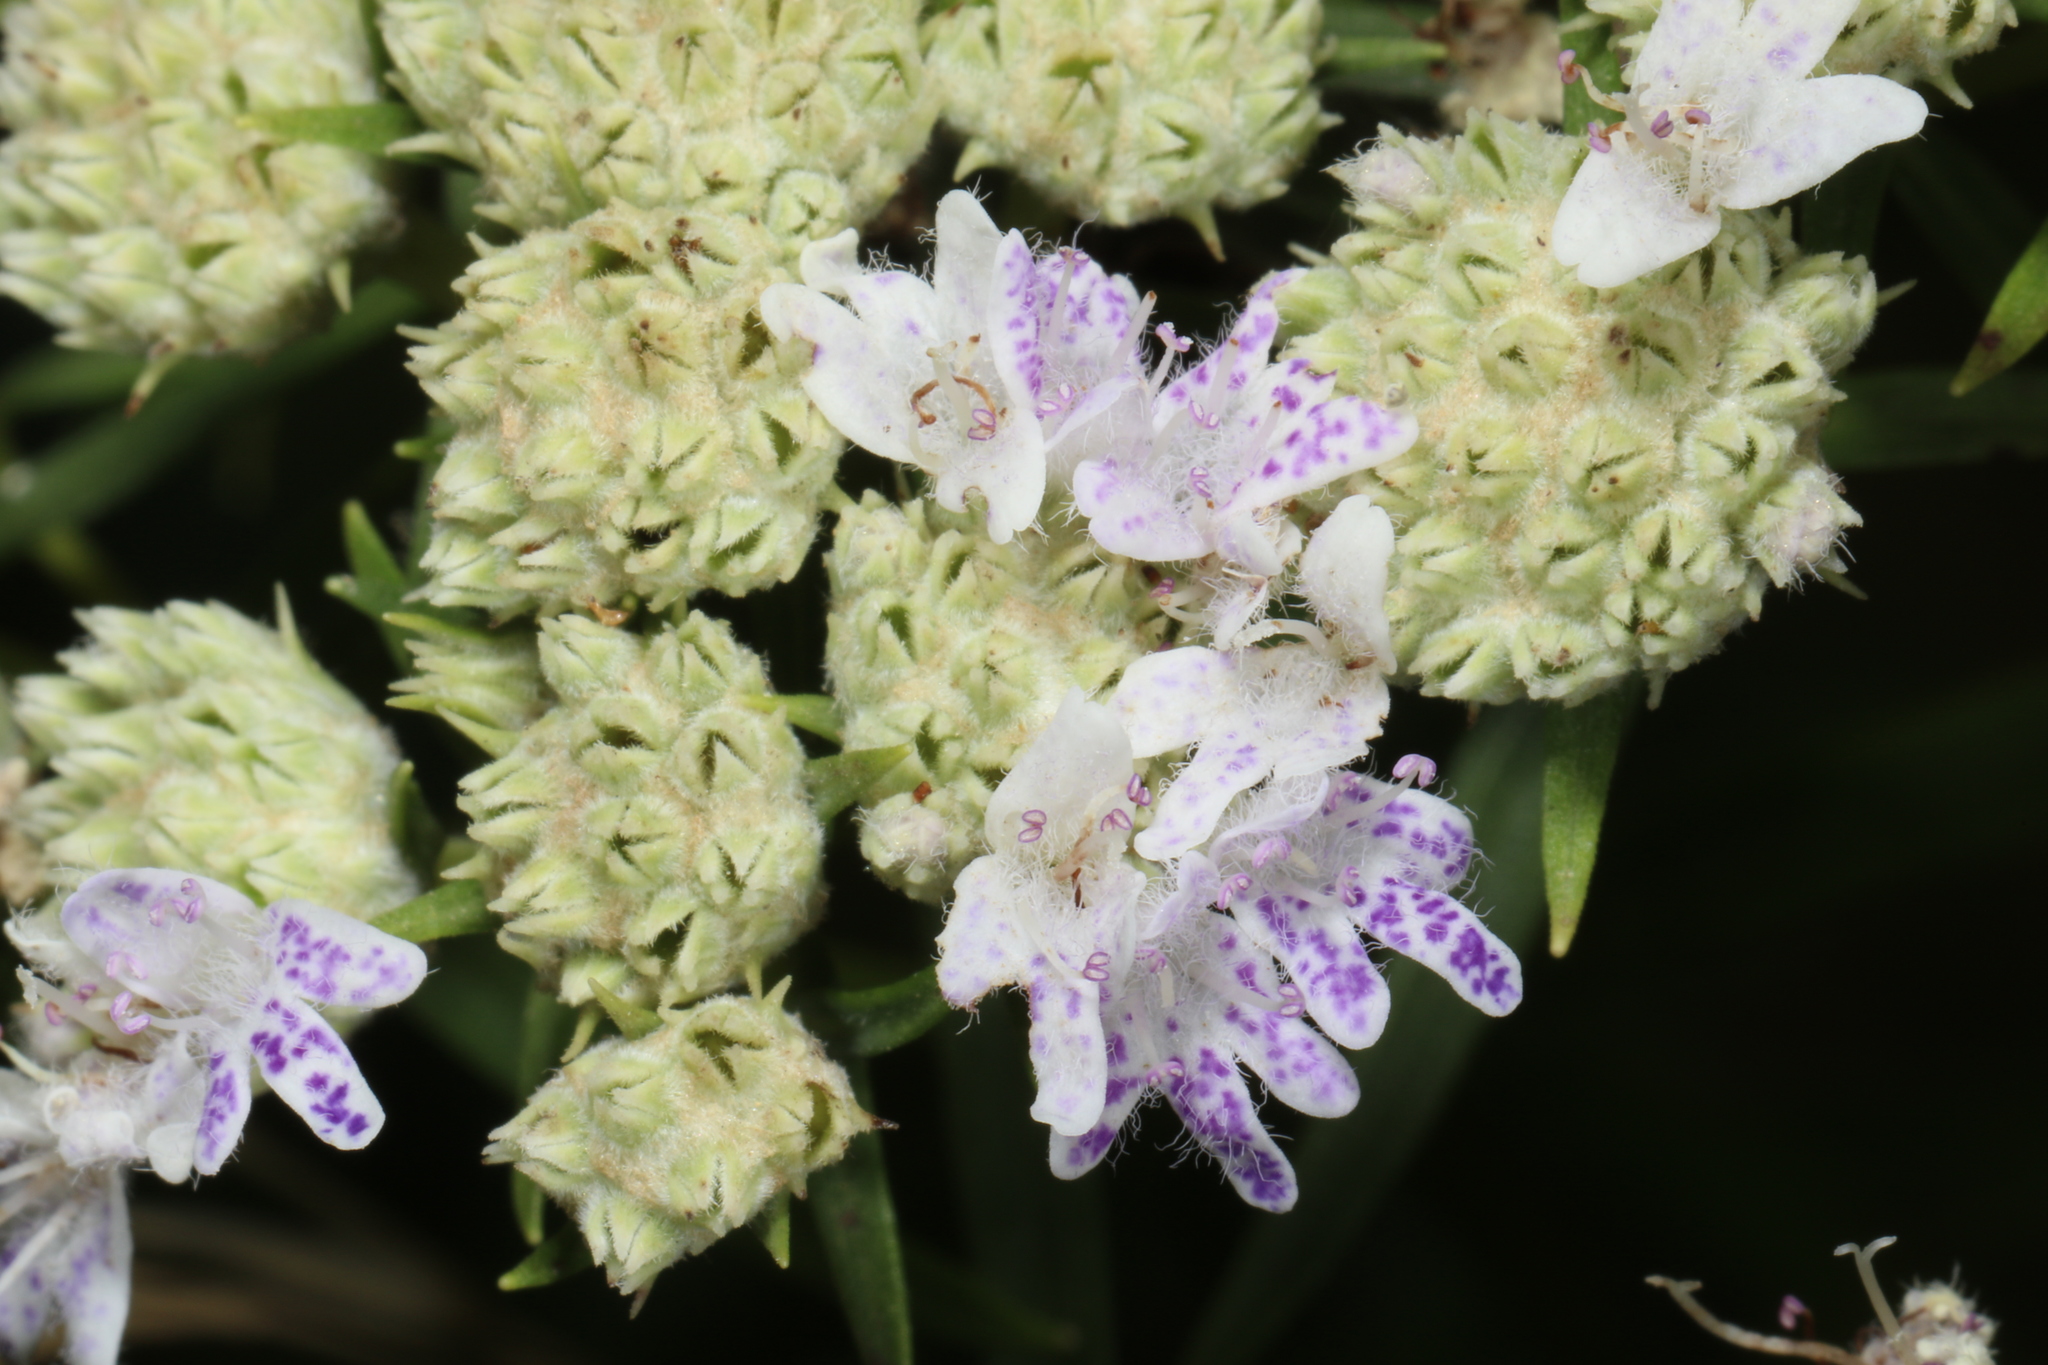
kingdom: Plantae
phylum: Tracheophyta
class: Magnoliopsida
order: Lamiales
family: Lamiaceae
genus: Pycnanthemum
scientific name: Pycnanthemum tenuifolium
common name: Narrow-leaf mountain-mint
